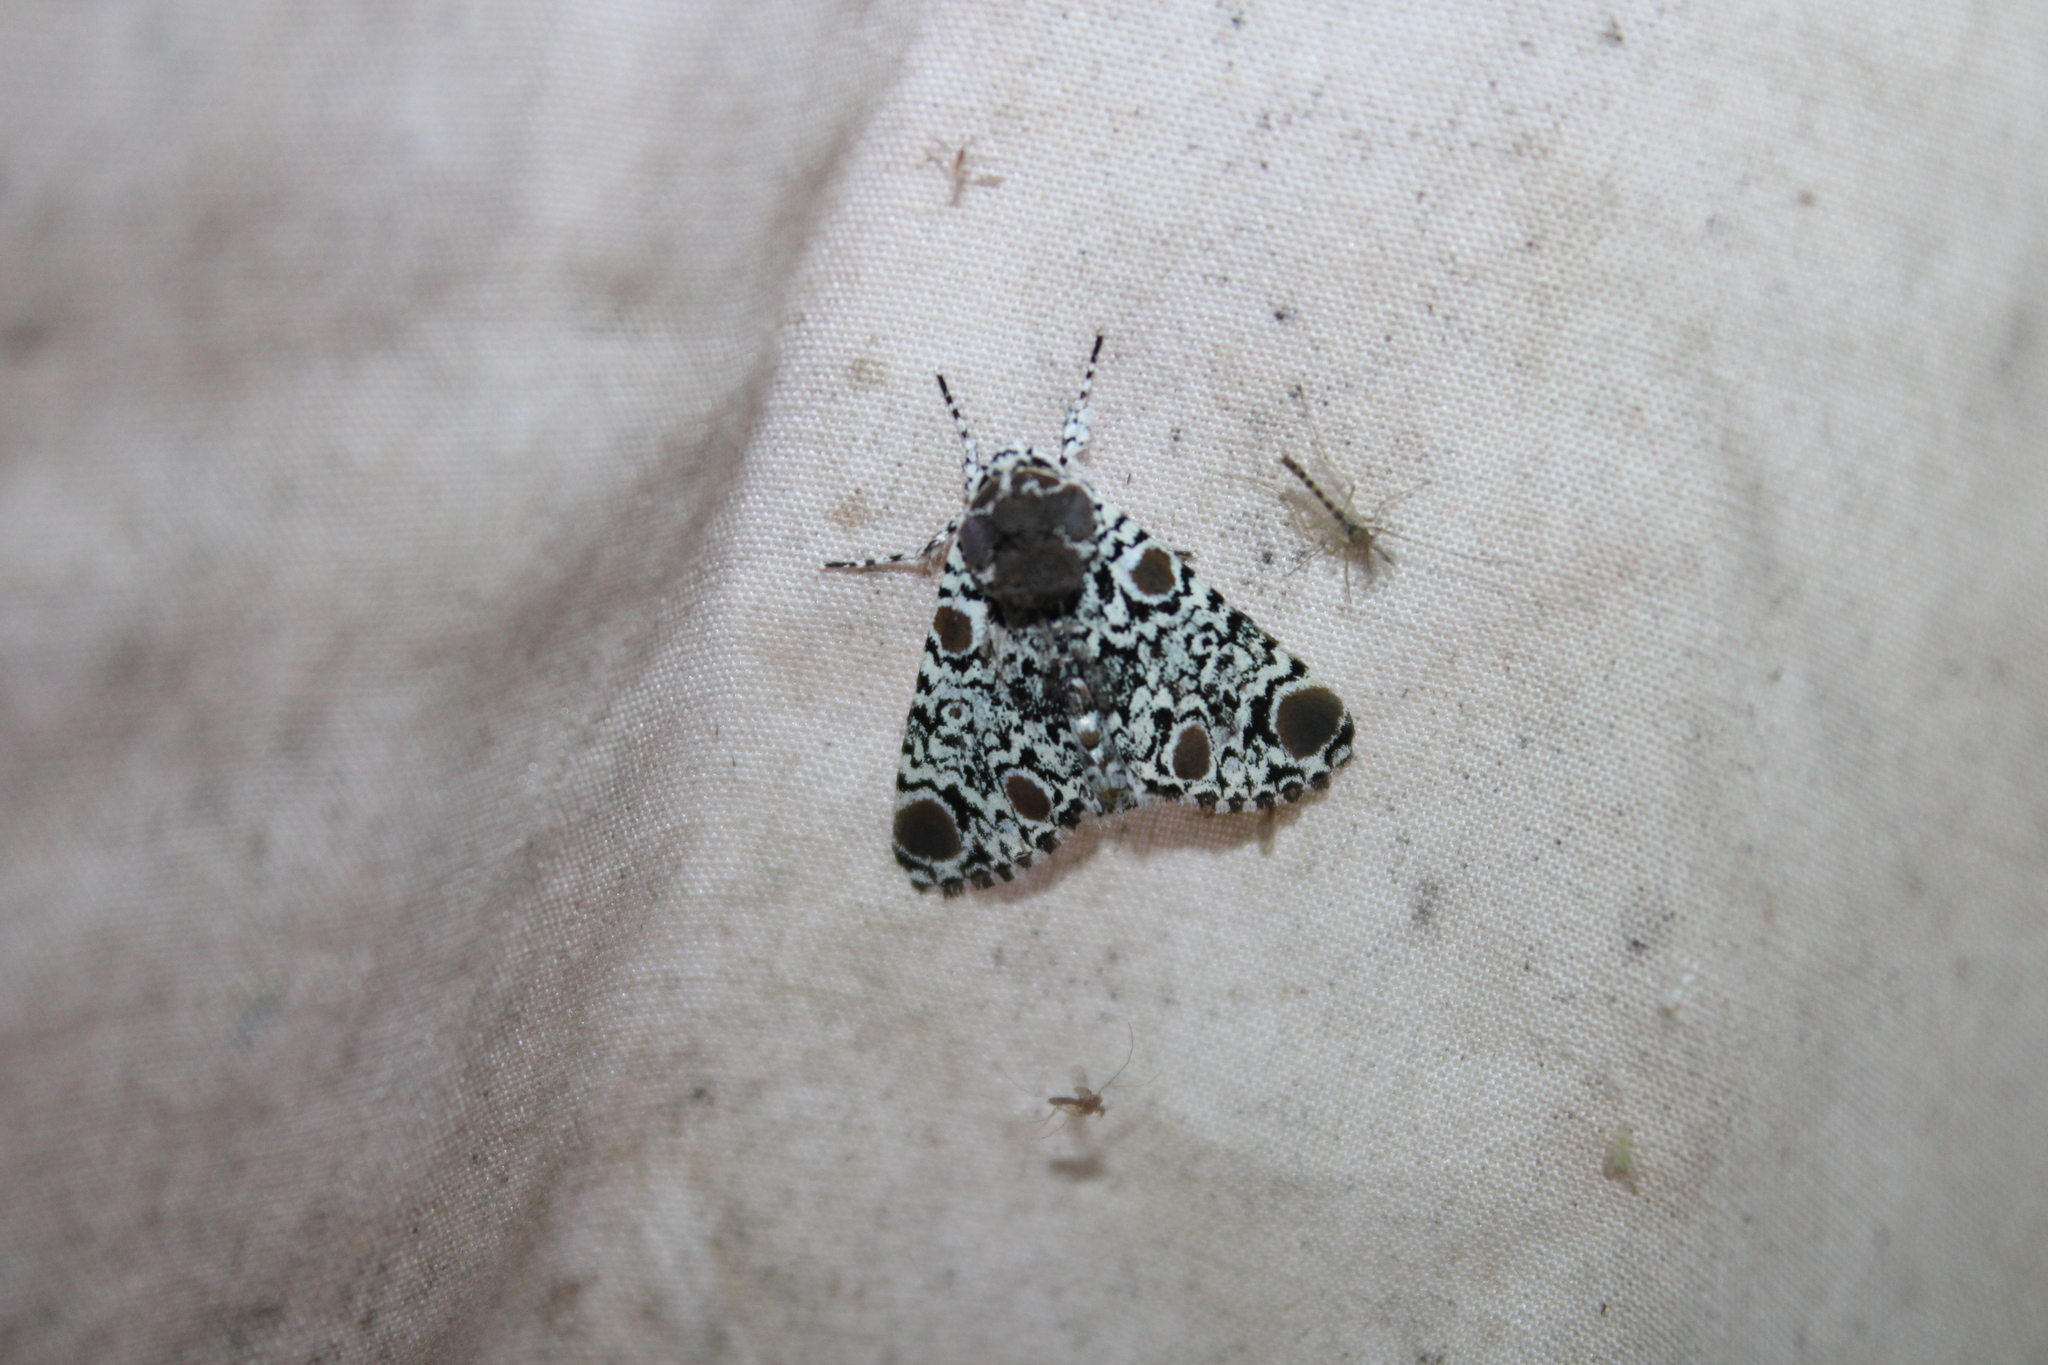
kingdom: Animalia
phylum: Arthropoda
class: Insecta
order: Lepidoptera
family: Noctuidae
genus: Harrisimemna
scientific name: Harrisimemna trisignata
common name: Harris threespot
